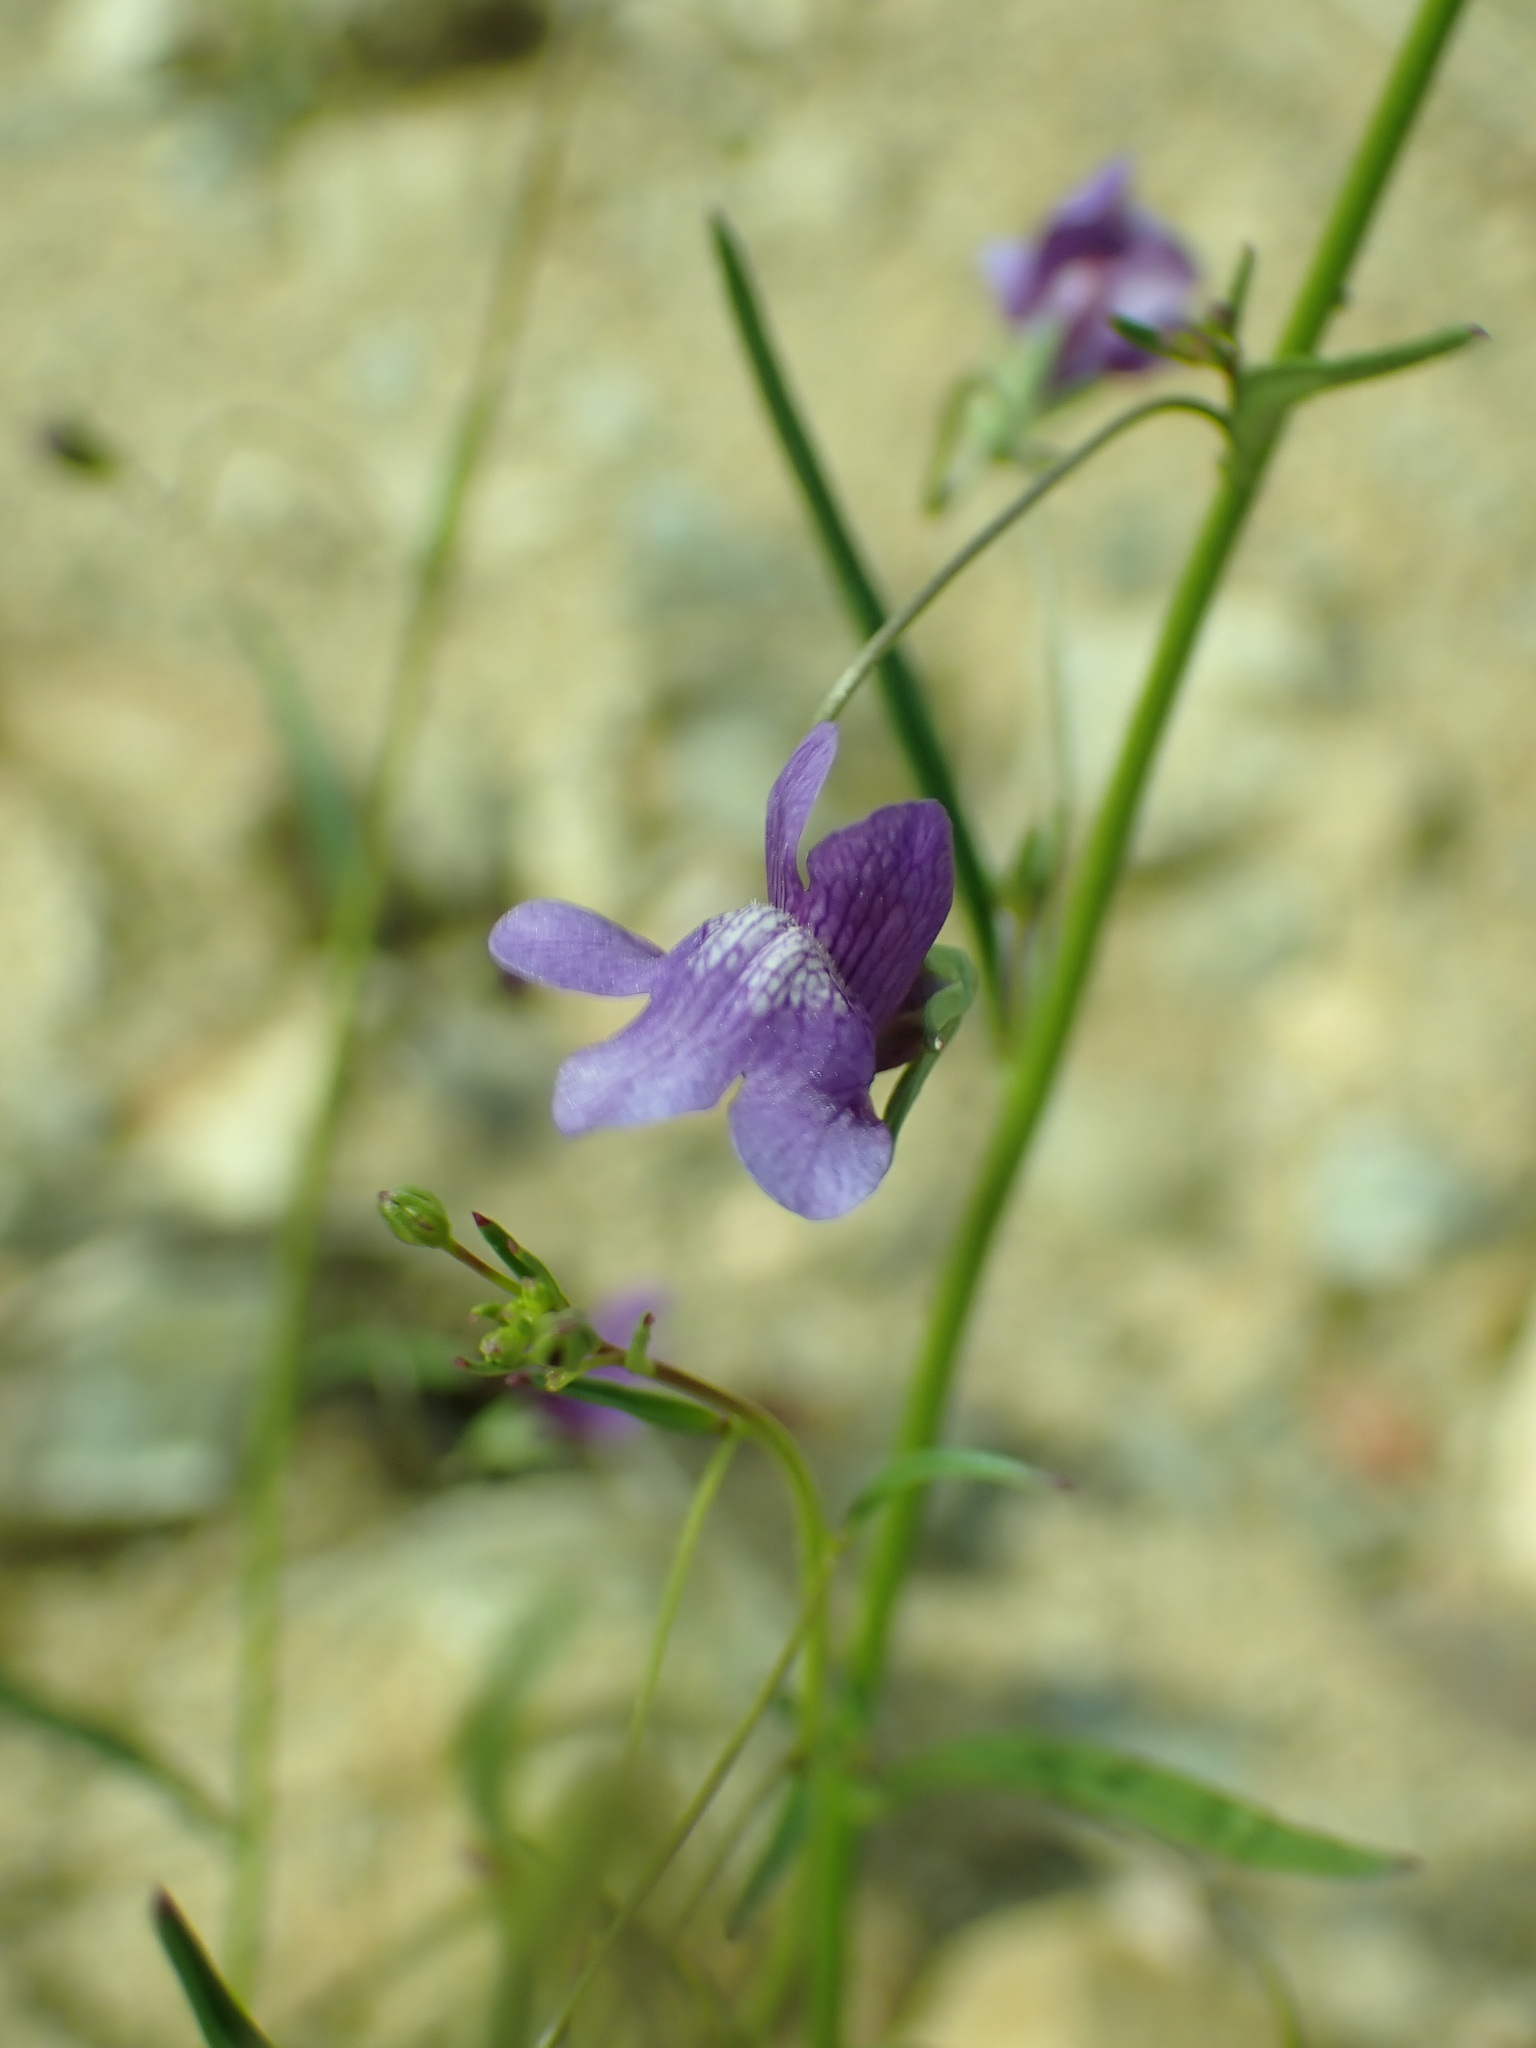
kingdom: Plantae
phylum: Tracheophyta
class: Magnoliopsida
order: Lamiales
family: Plantaginaceae
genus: Neogaerrhinum
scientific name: Neogaerrhinum strictum
